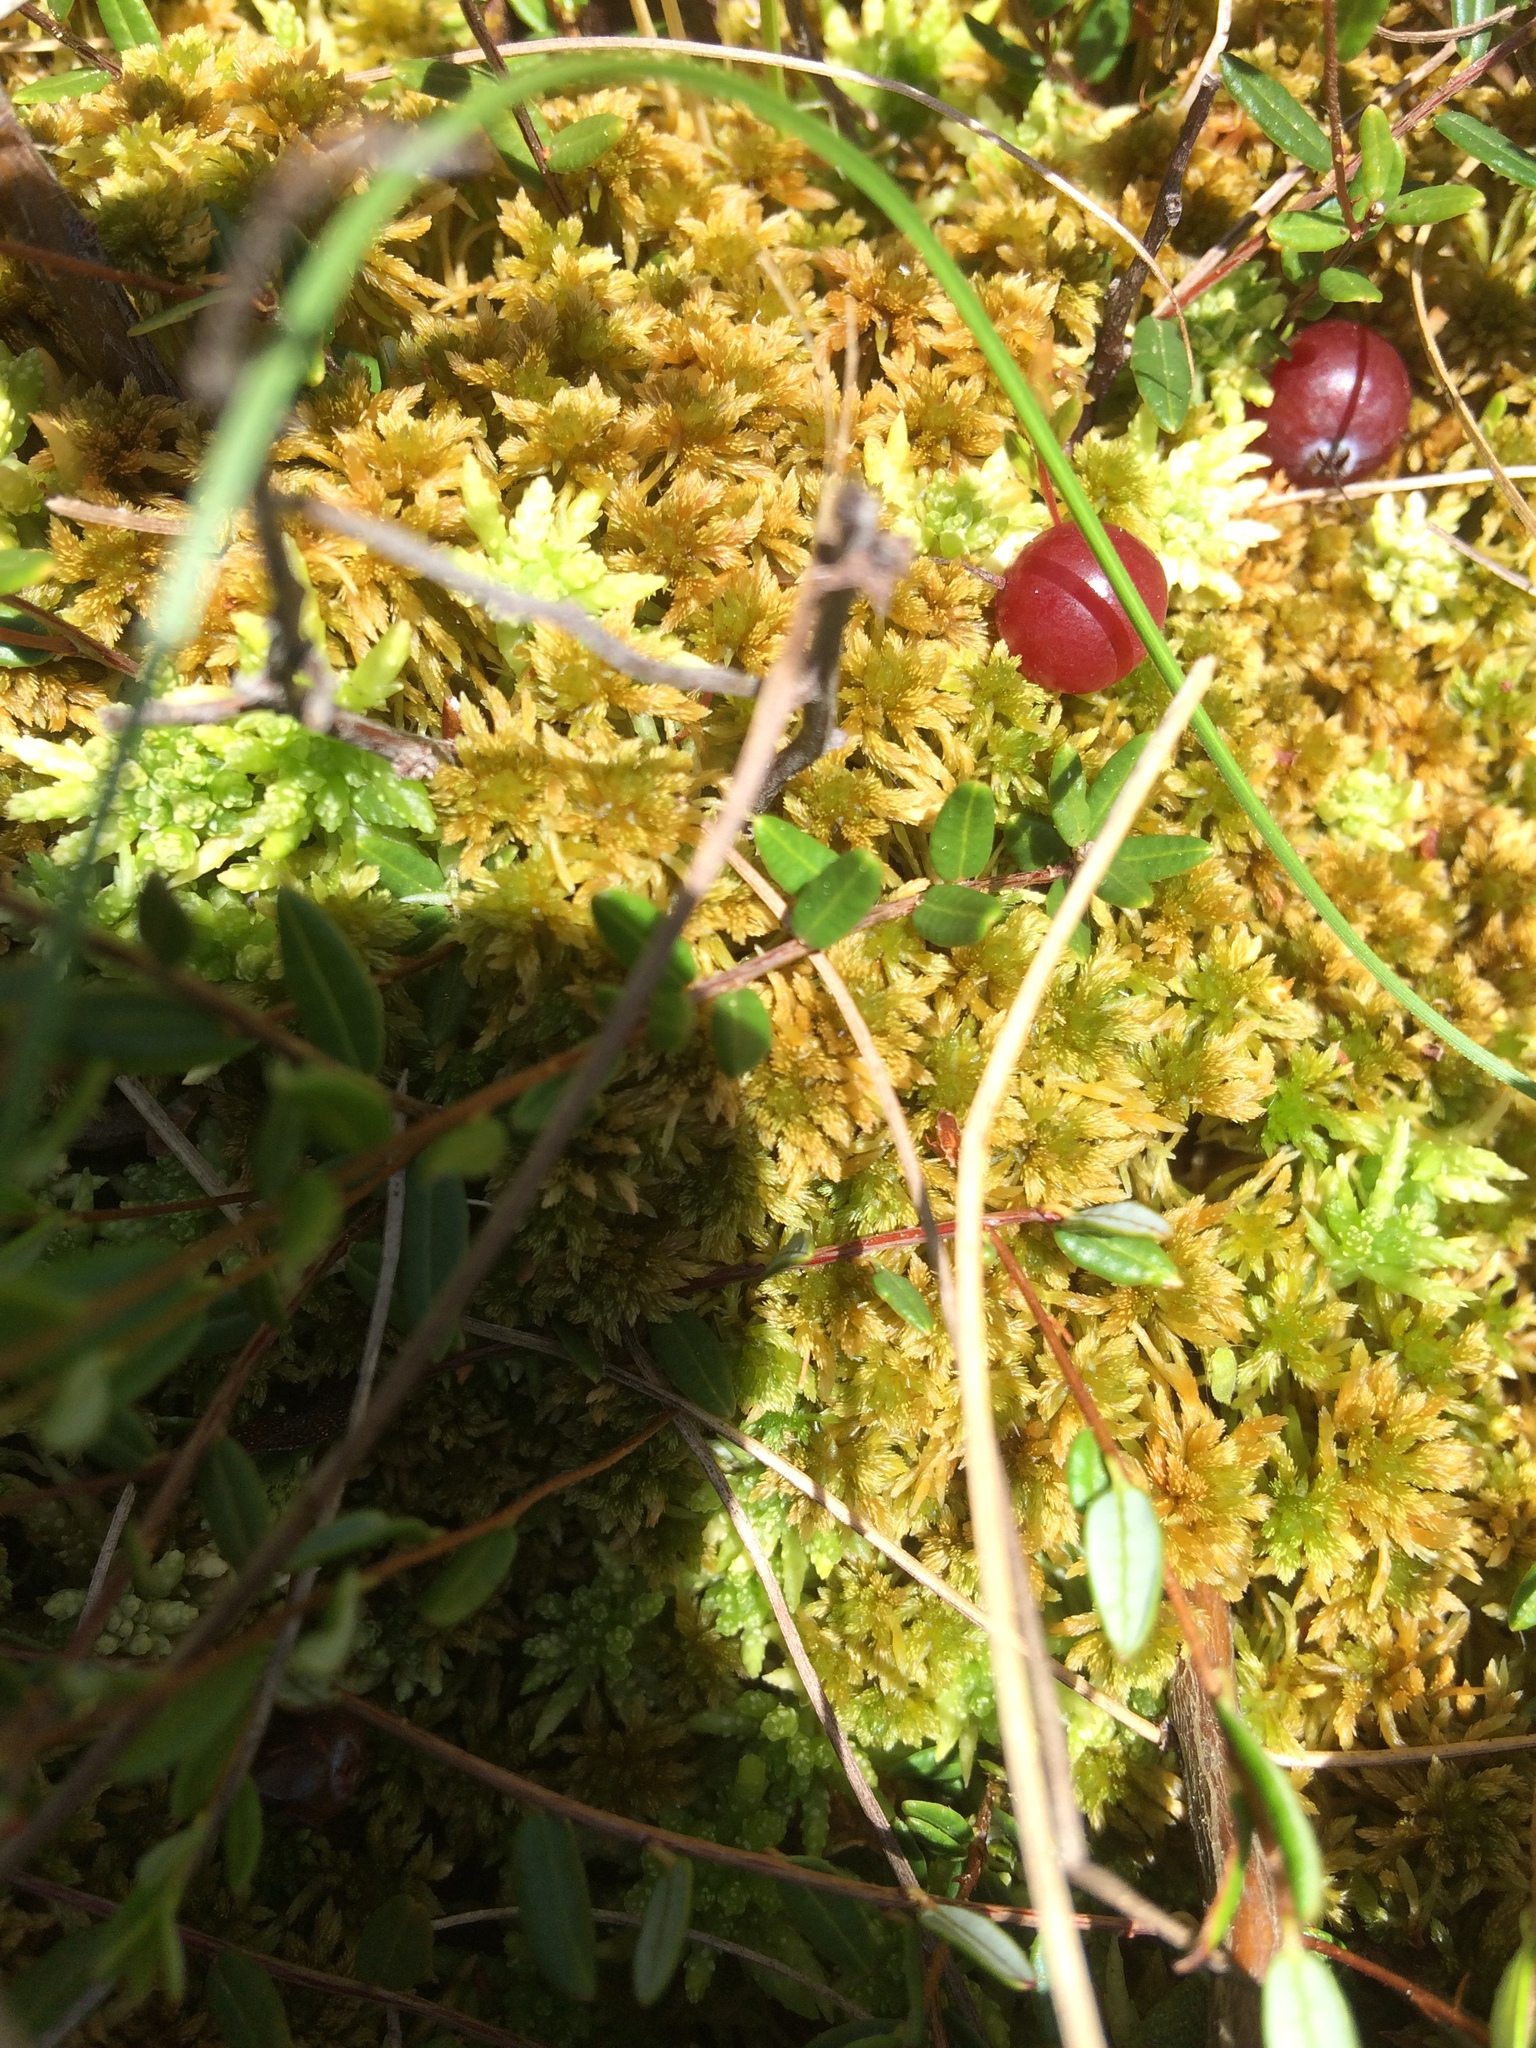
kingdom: Plantae
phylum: Bryophyta
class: Sphagnopsida
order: Sphagnales
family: Sphagnaceae
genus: Sphagnum
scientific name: Sphagnum fuscum
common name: Brown peat moss
